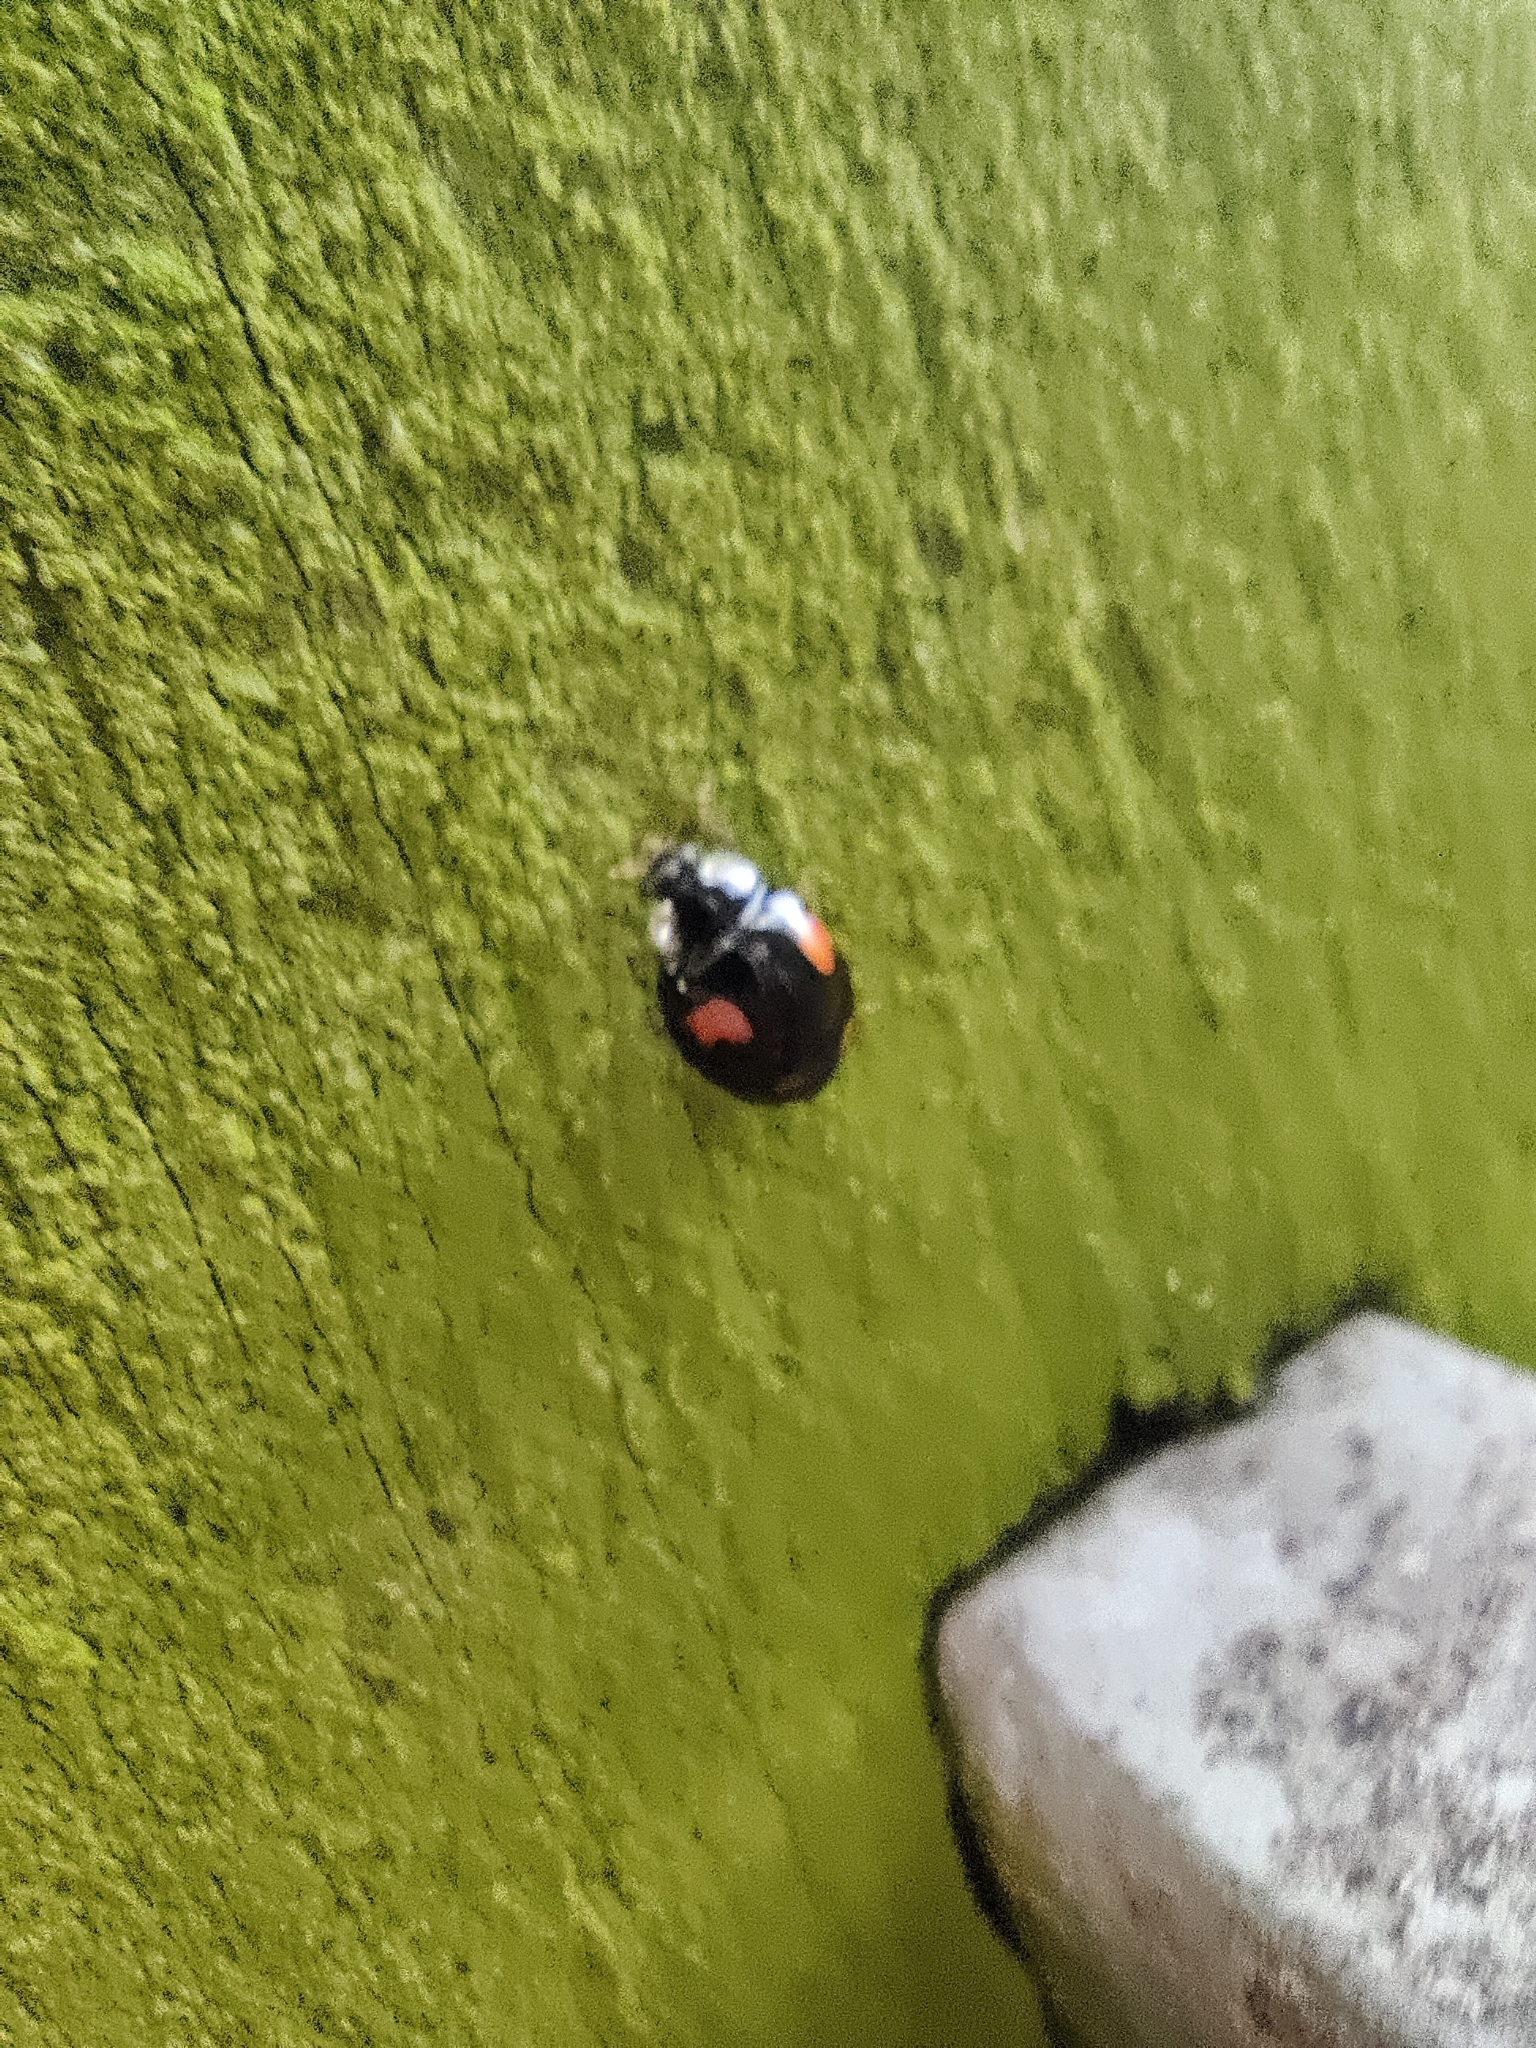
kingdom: Animalia
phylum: Arthropoda
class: Insecta
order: Coleoptera
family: Coccinellidae
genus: Harmonia
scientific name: Harmonia axyridis
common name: Harlequin ladybird
